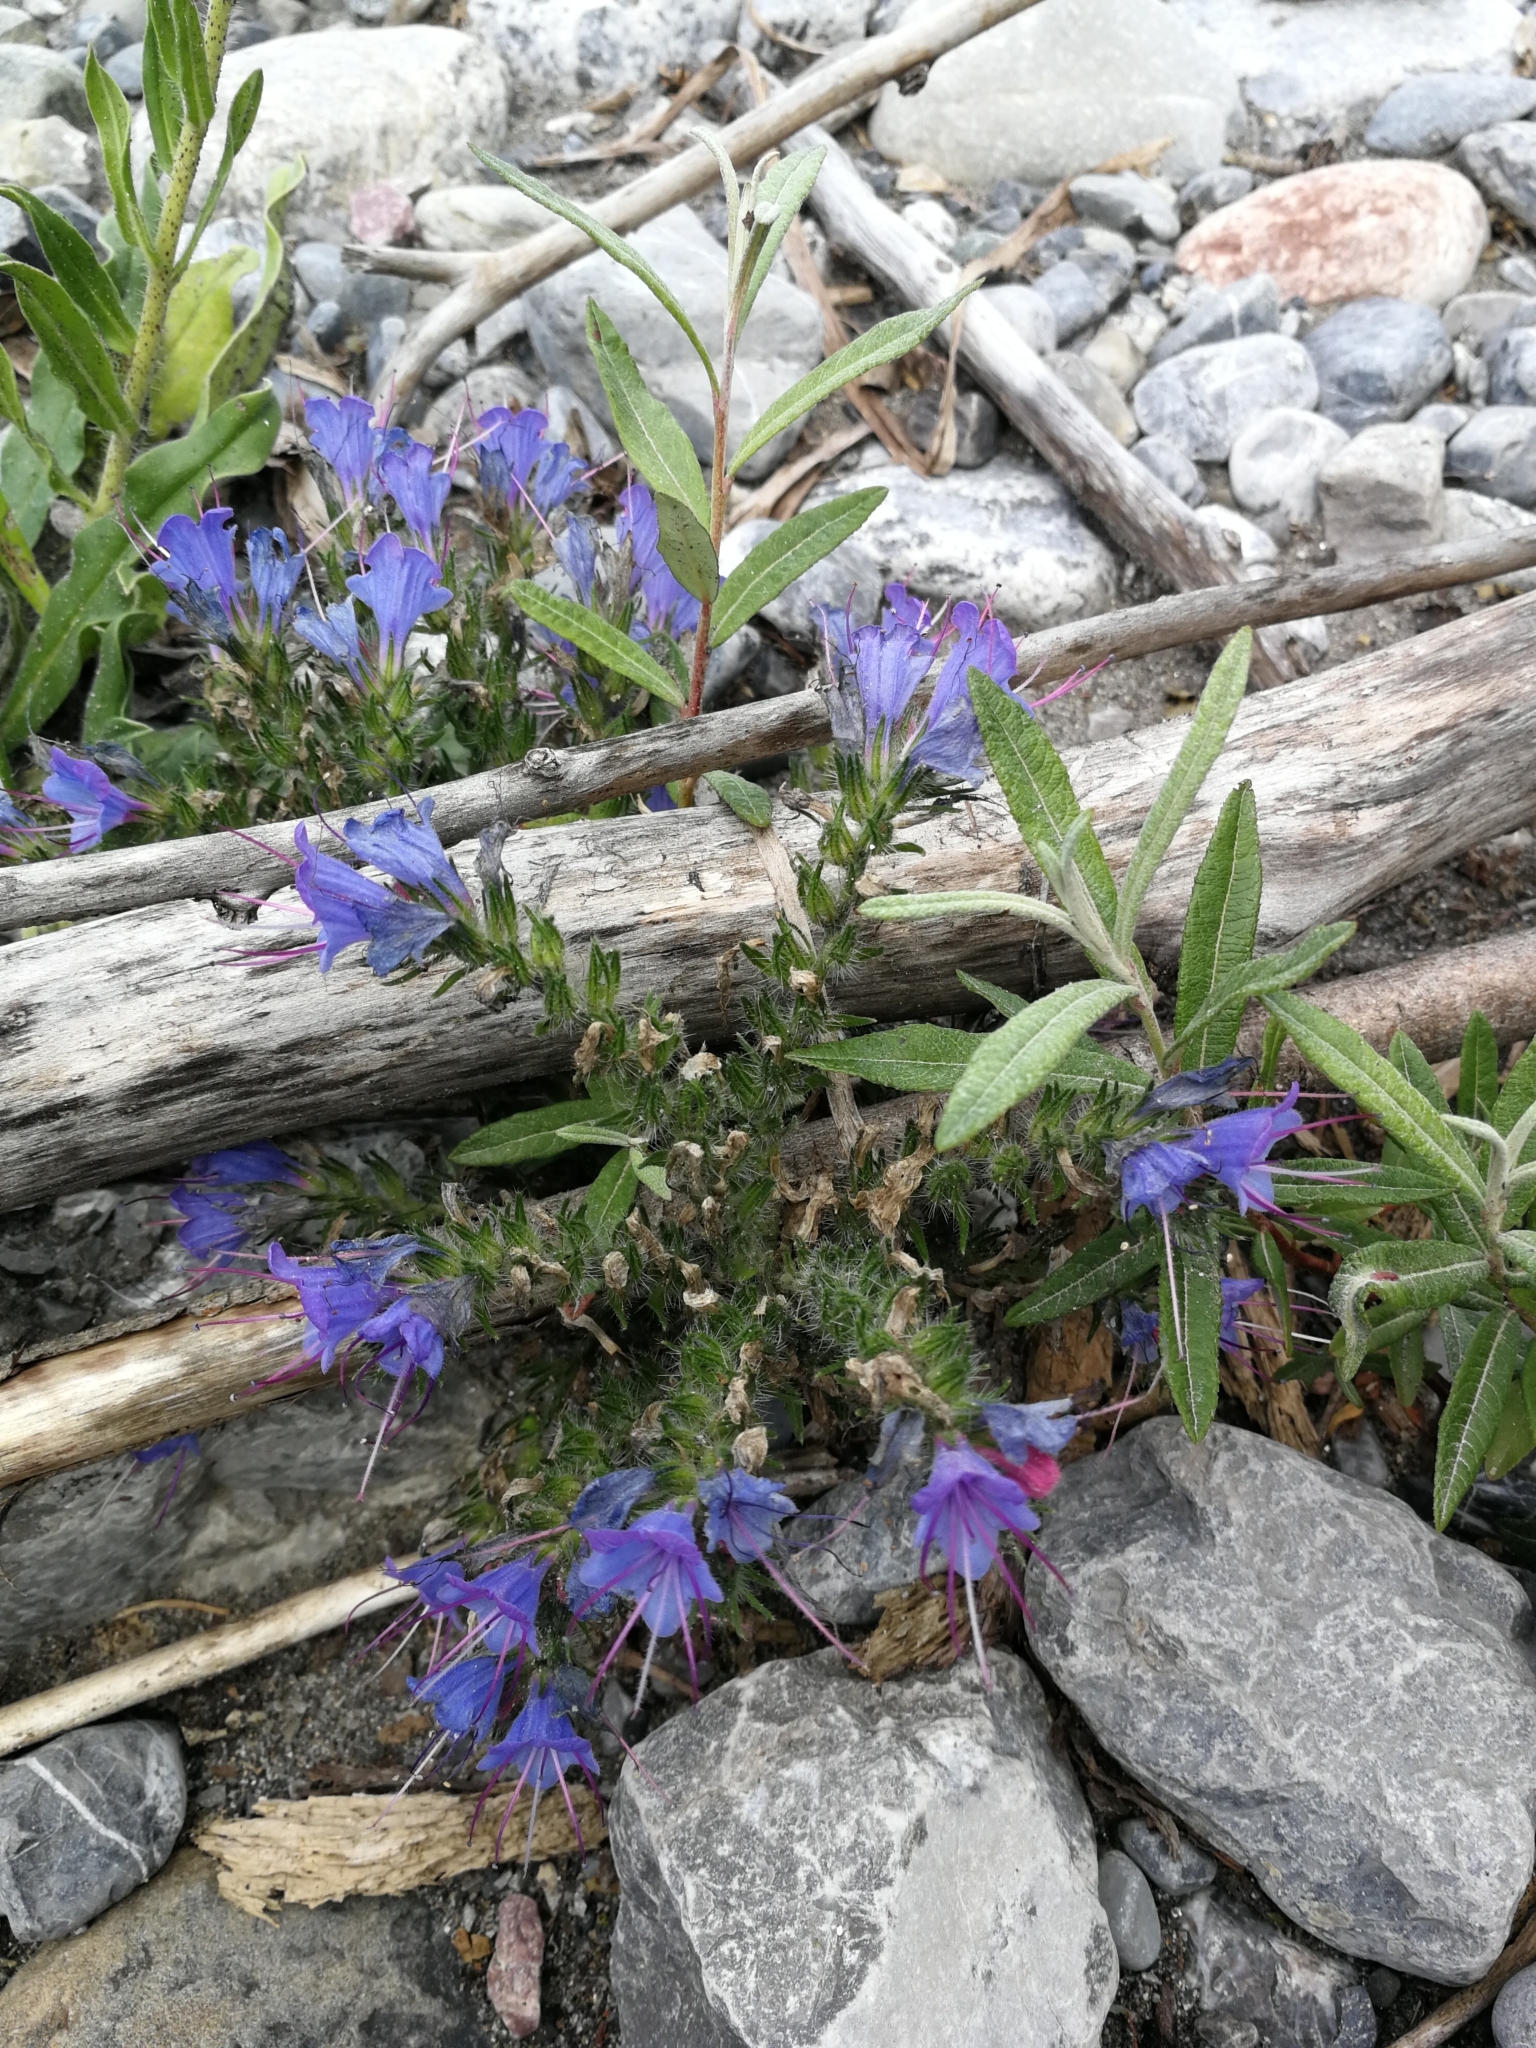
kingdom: Plantae
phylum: Tracheophyta
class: Magnoliopsida
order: Boraginales
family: Boraginaceae
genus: Echium
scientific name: Echium vulgare
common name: Common viper's bugloss
